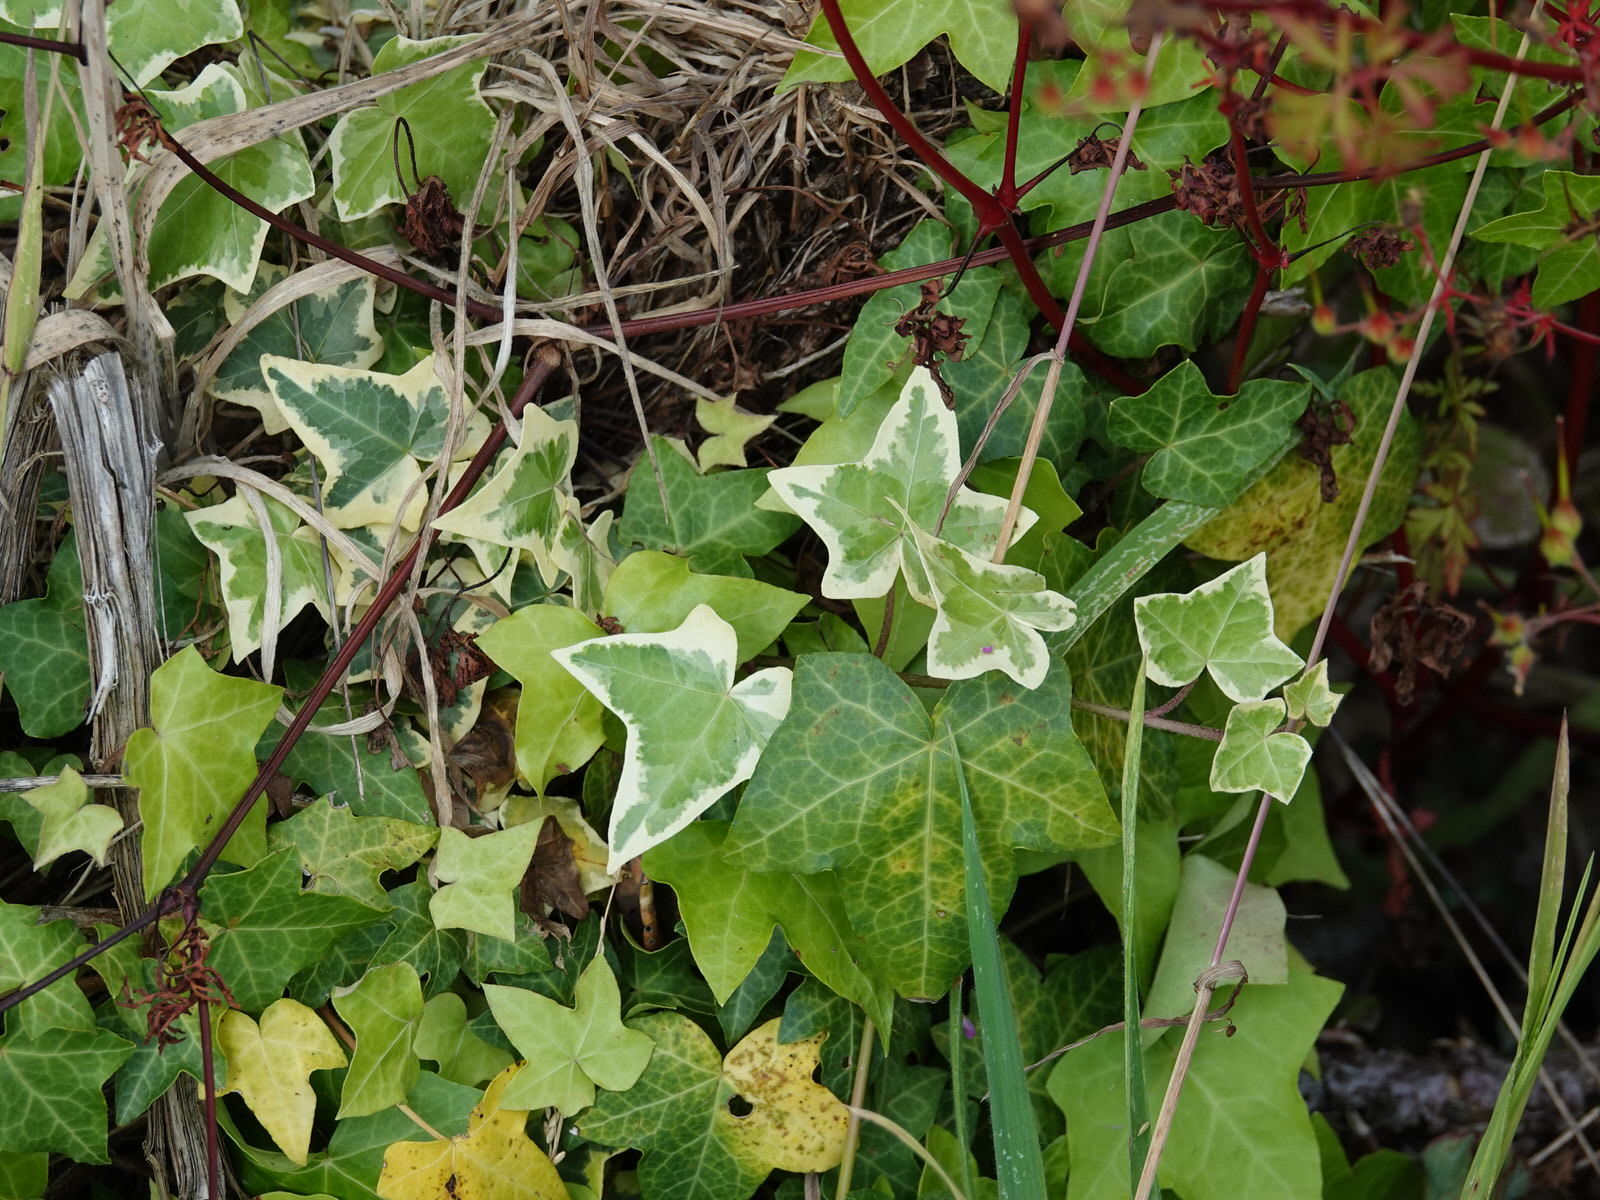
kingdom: Plantae
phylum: Tracheophyta
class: Magnoliopsida
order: Apiales
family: Araliaceae
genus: Hedera
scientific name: Hedera helix
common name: Ivy
